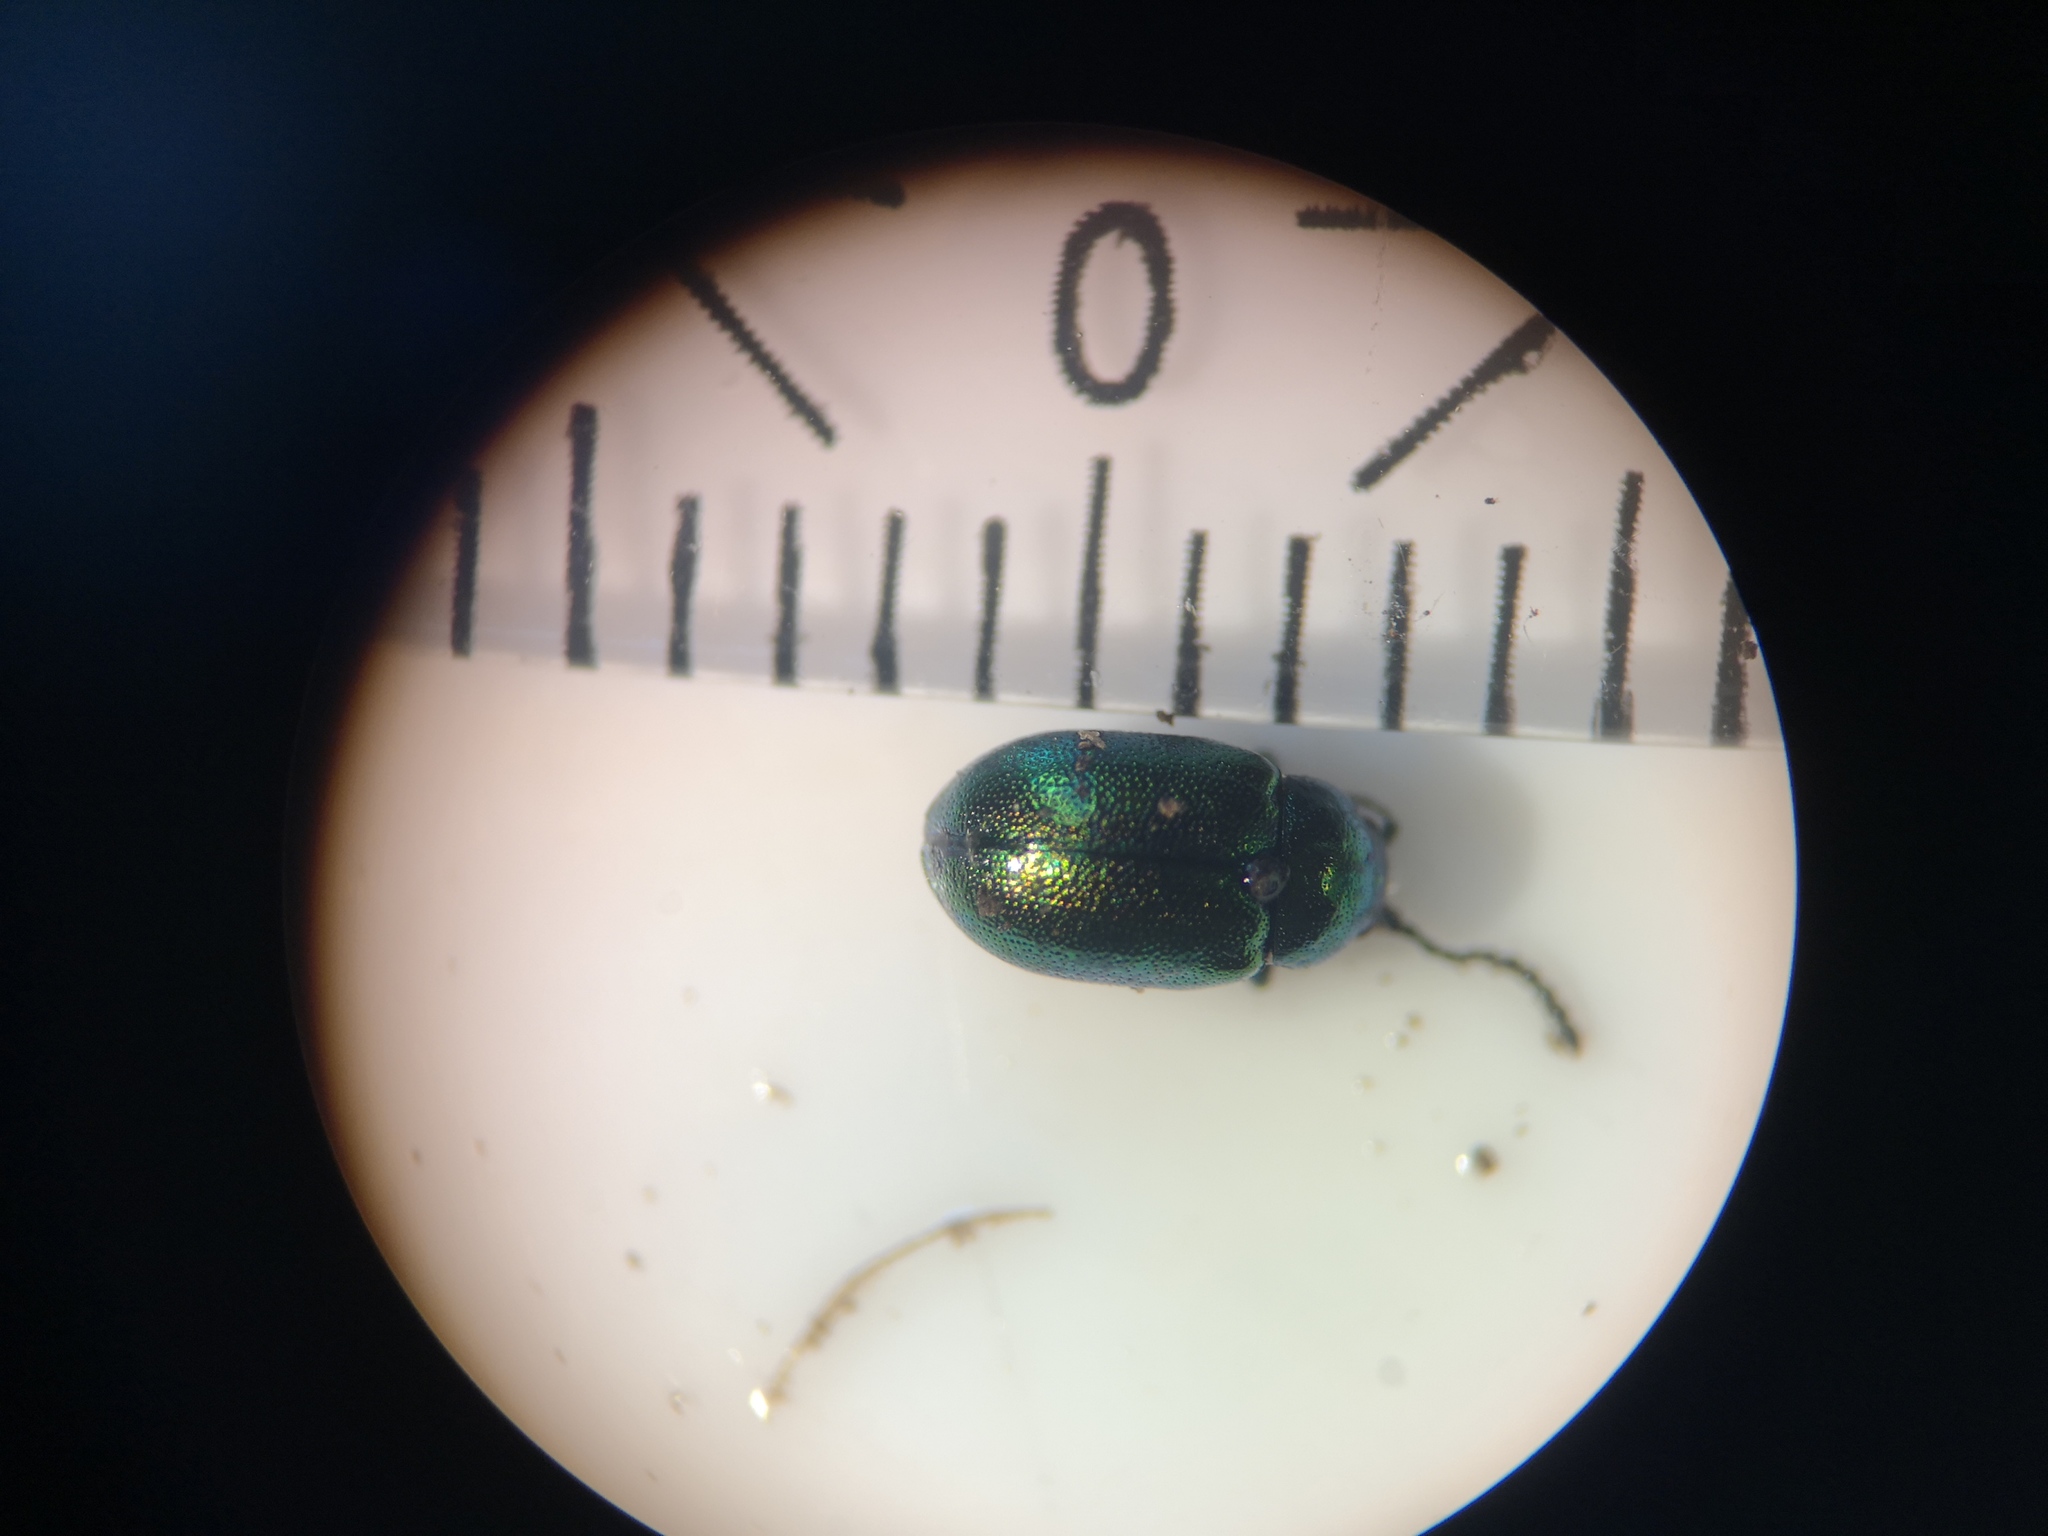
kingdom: Animalia
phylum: Arthropoda
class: Insecta
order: Coleoptera
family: Chrysomelidae
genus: Gastrophysa
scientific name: Gastrophysa viridula
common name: Green dock beetle
